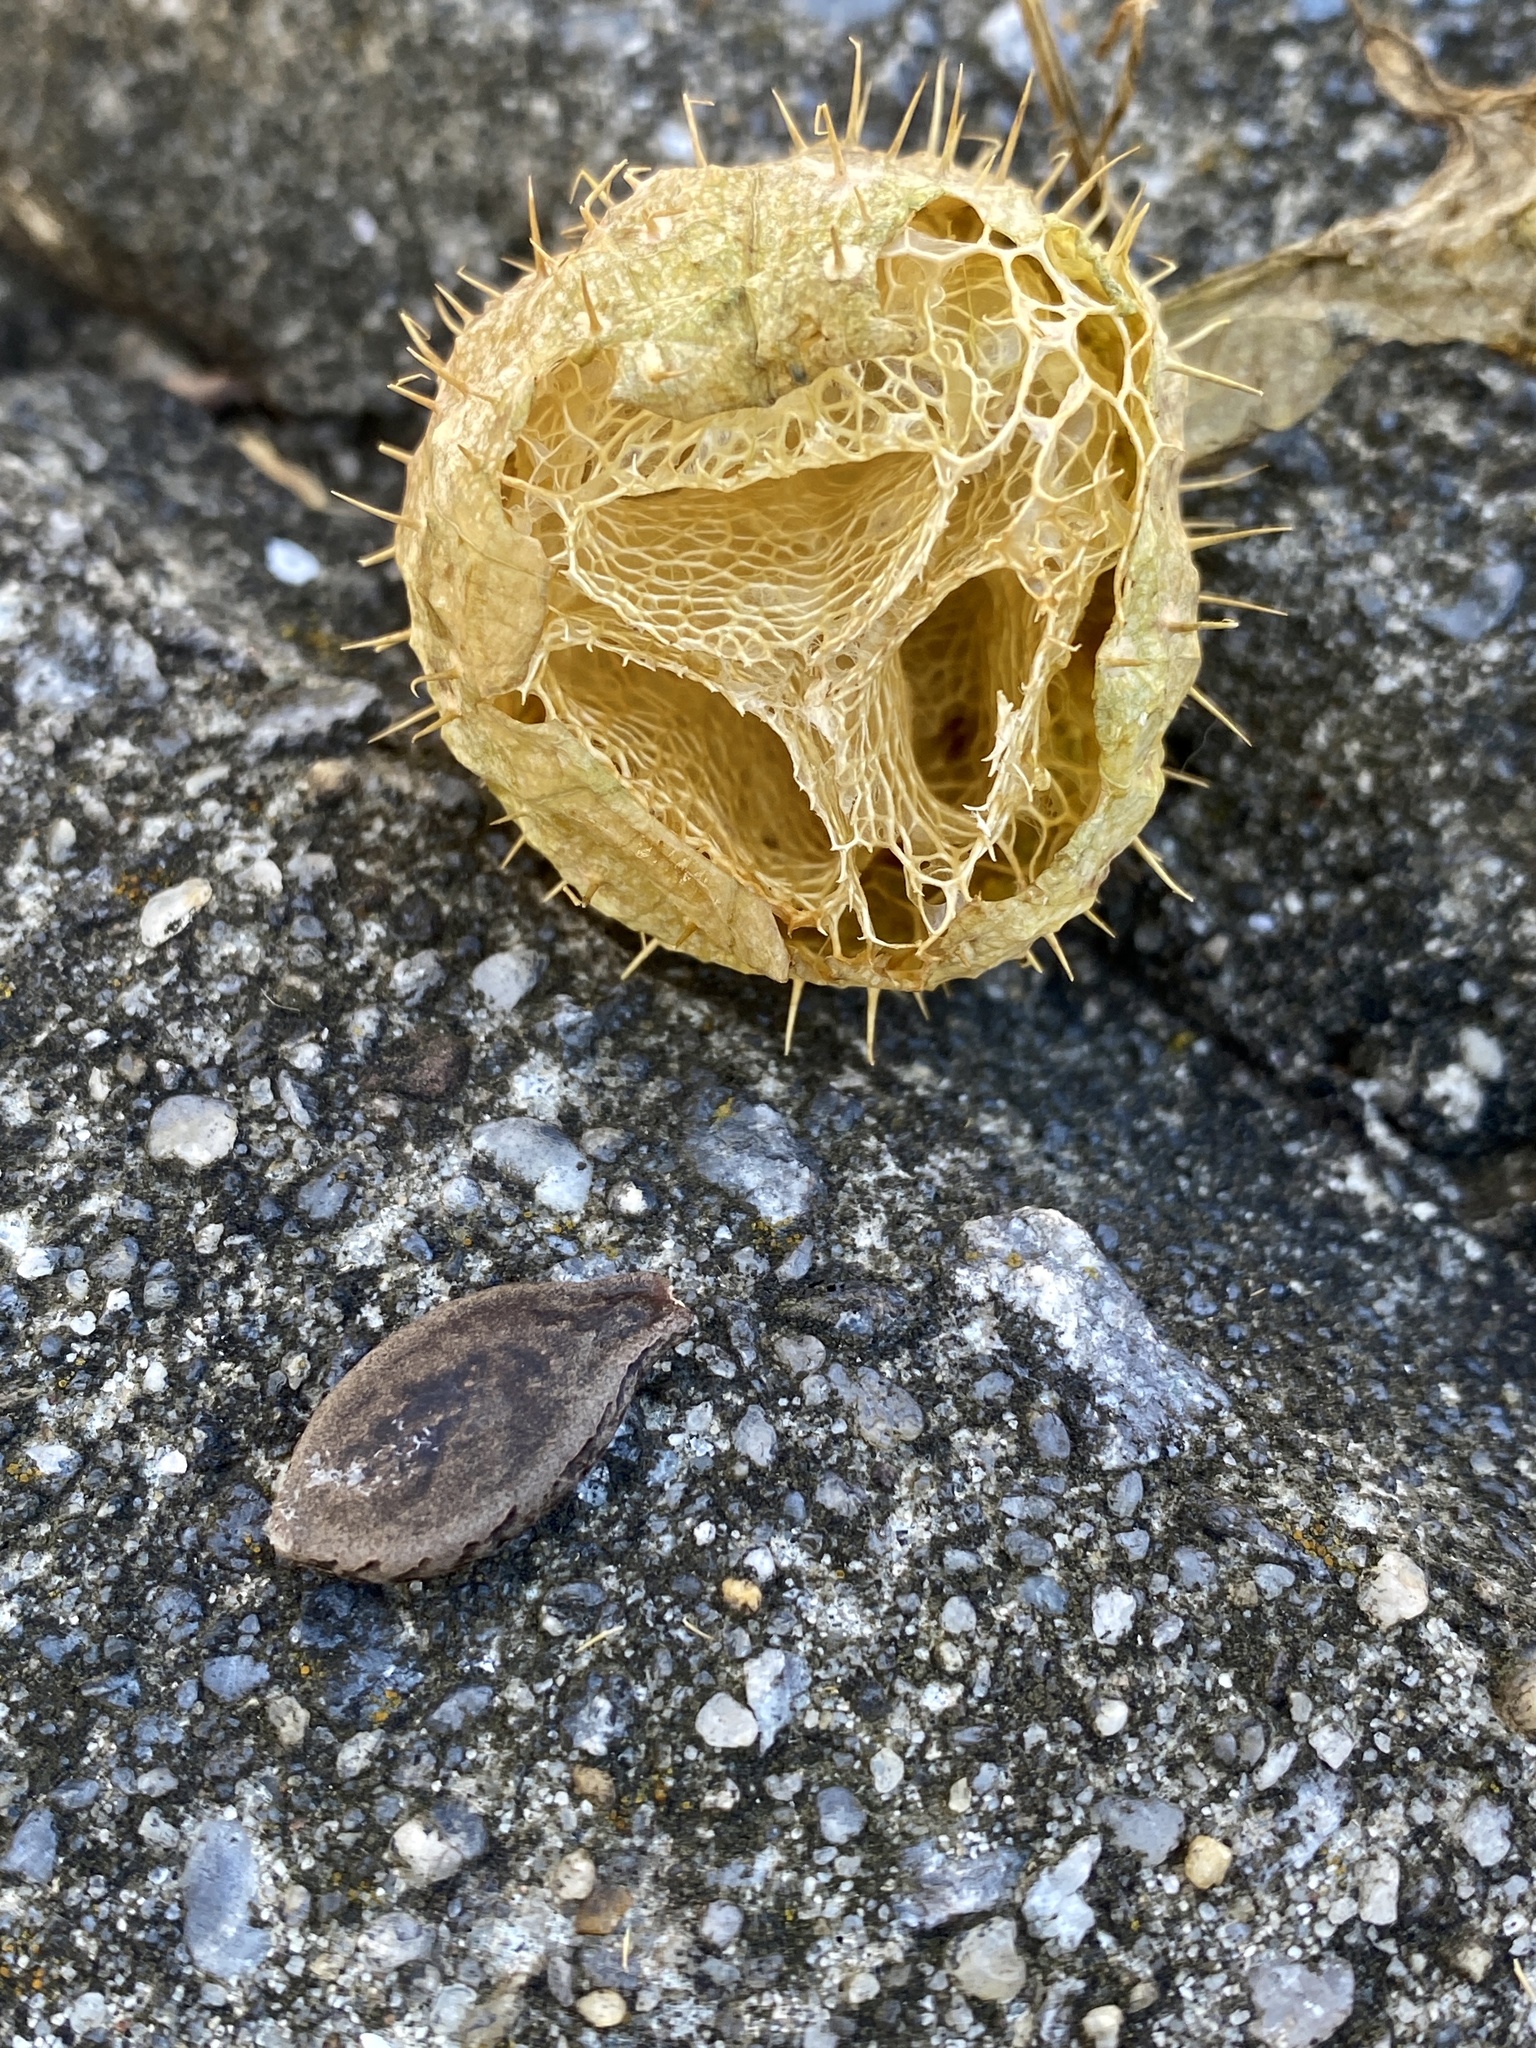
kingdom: Plantae
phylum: Tracheophyta
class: Magnoliopsida
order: Cucurbitales
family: Cucurbitaceae
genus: Echinocystis
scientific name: Echinocystis lobata
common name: Wild cucumber
